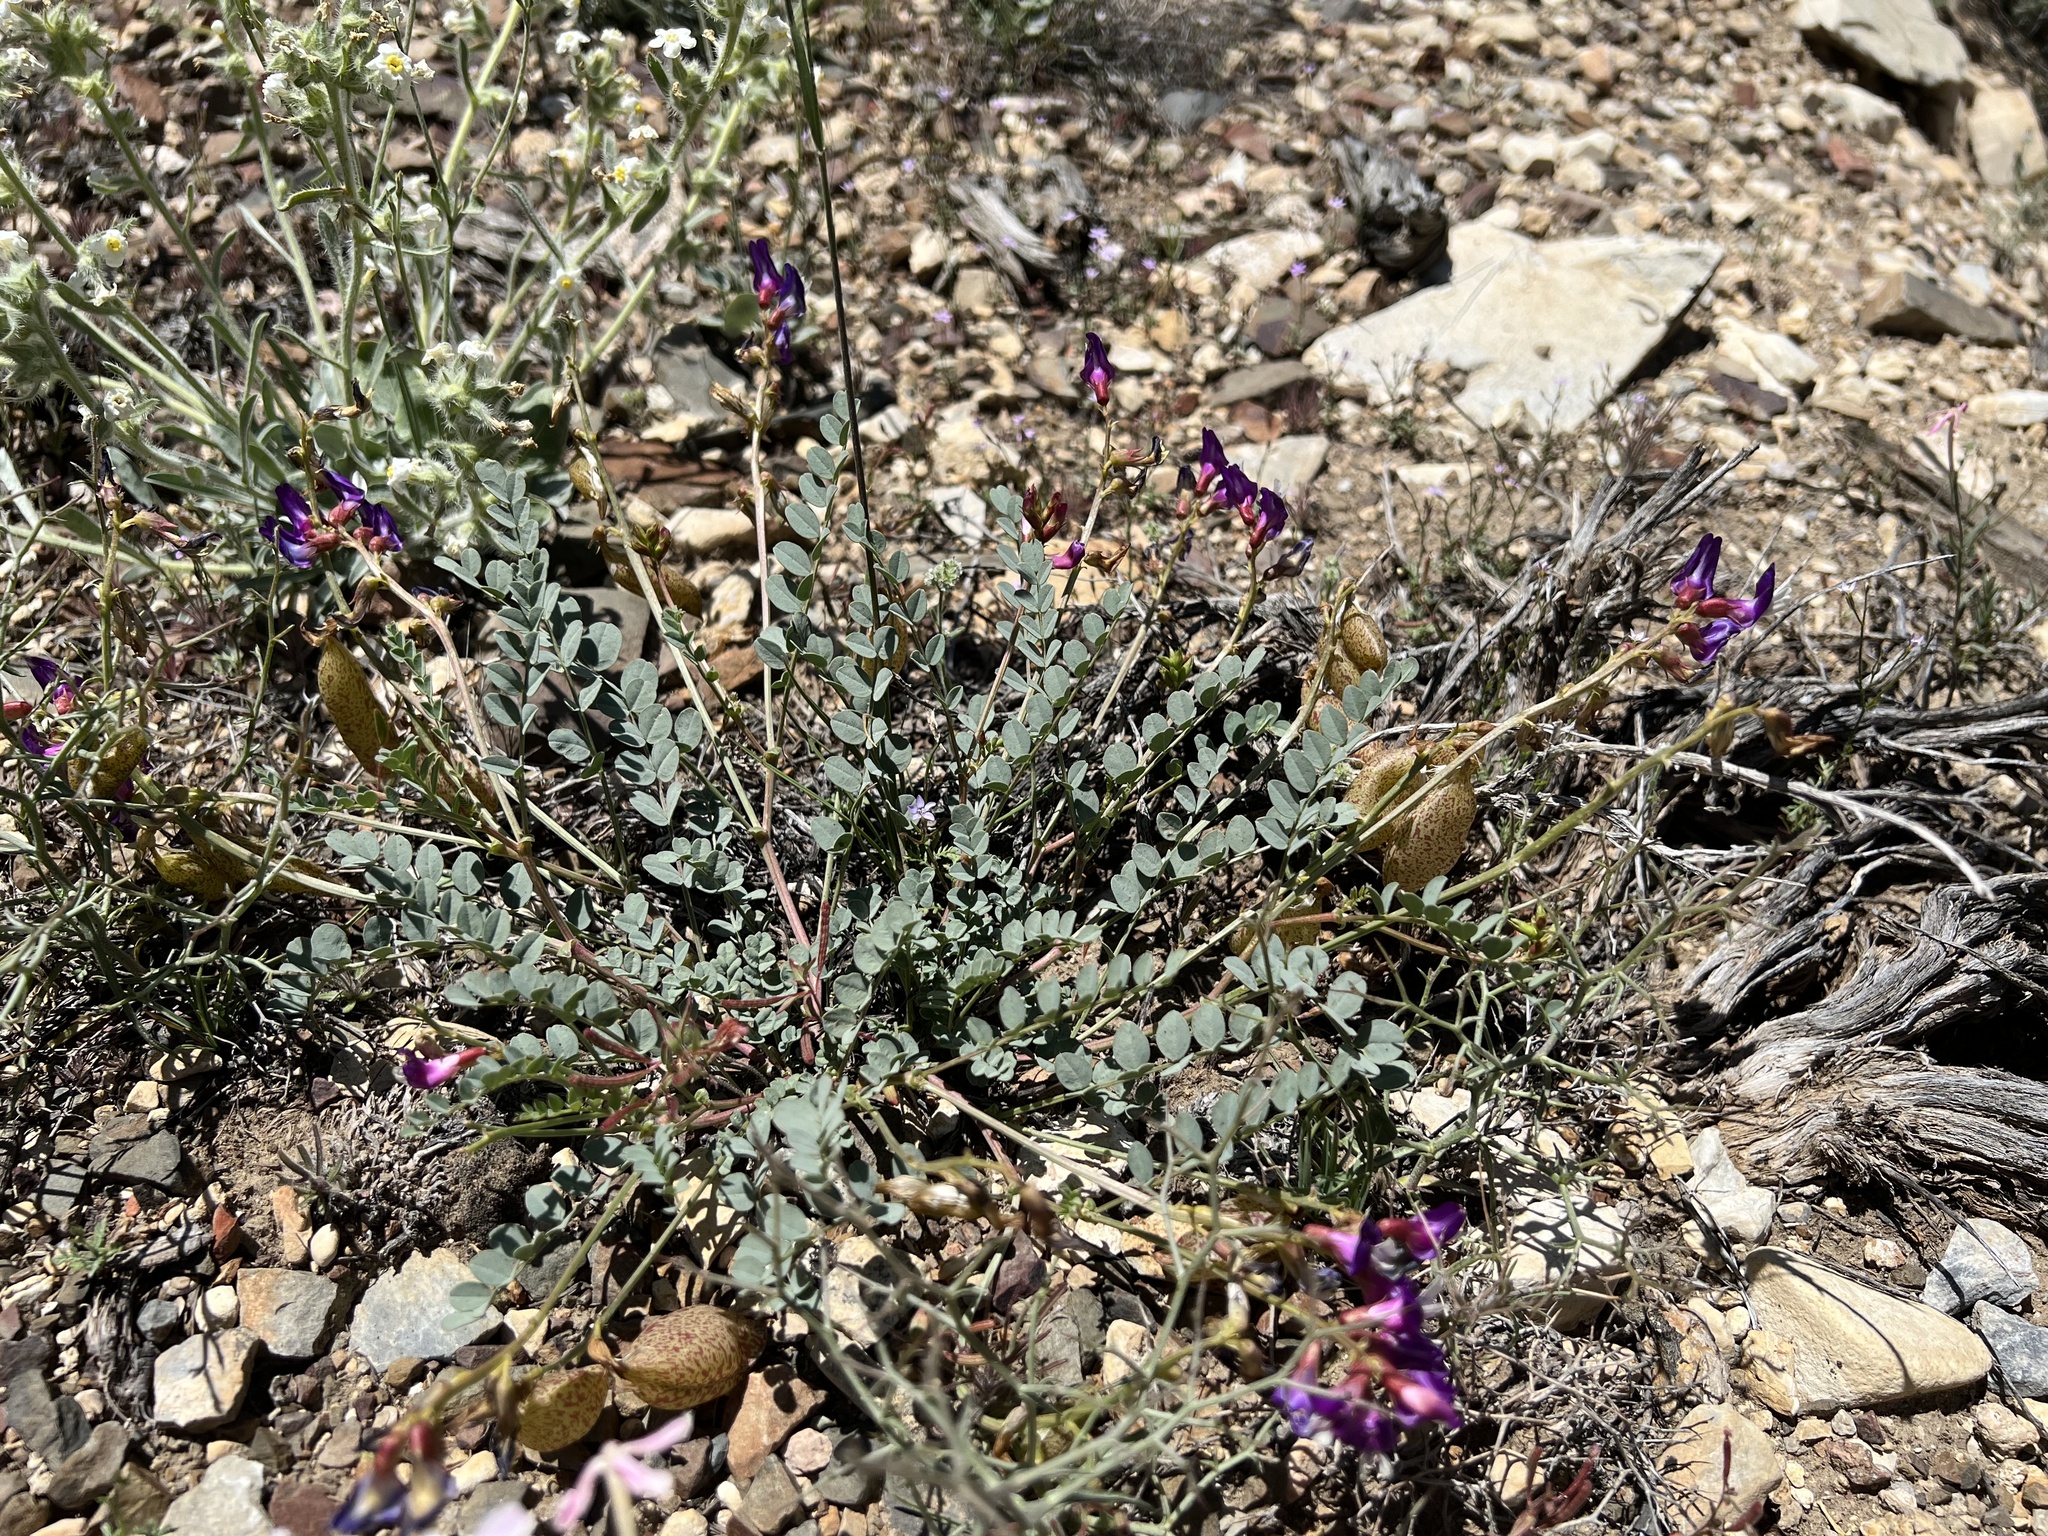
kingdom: Plantae
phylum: Tracheophyta
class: Magnoliopsida
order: Fabales
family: Fabaceae
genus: Astragalus
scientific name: Astragalus oophorus
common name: Egg milkvetch
